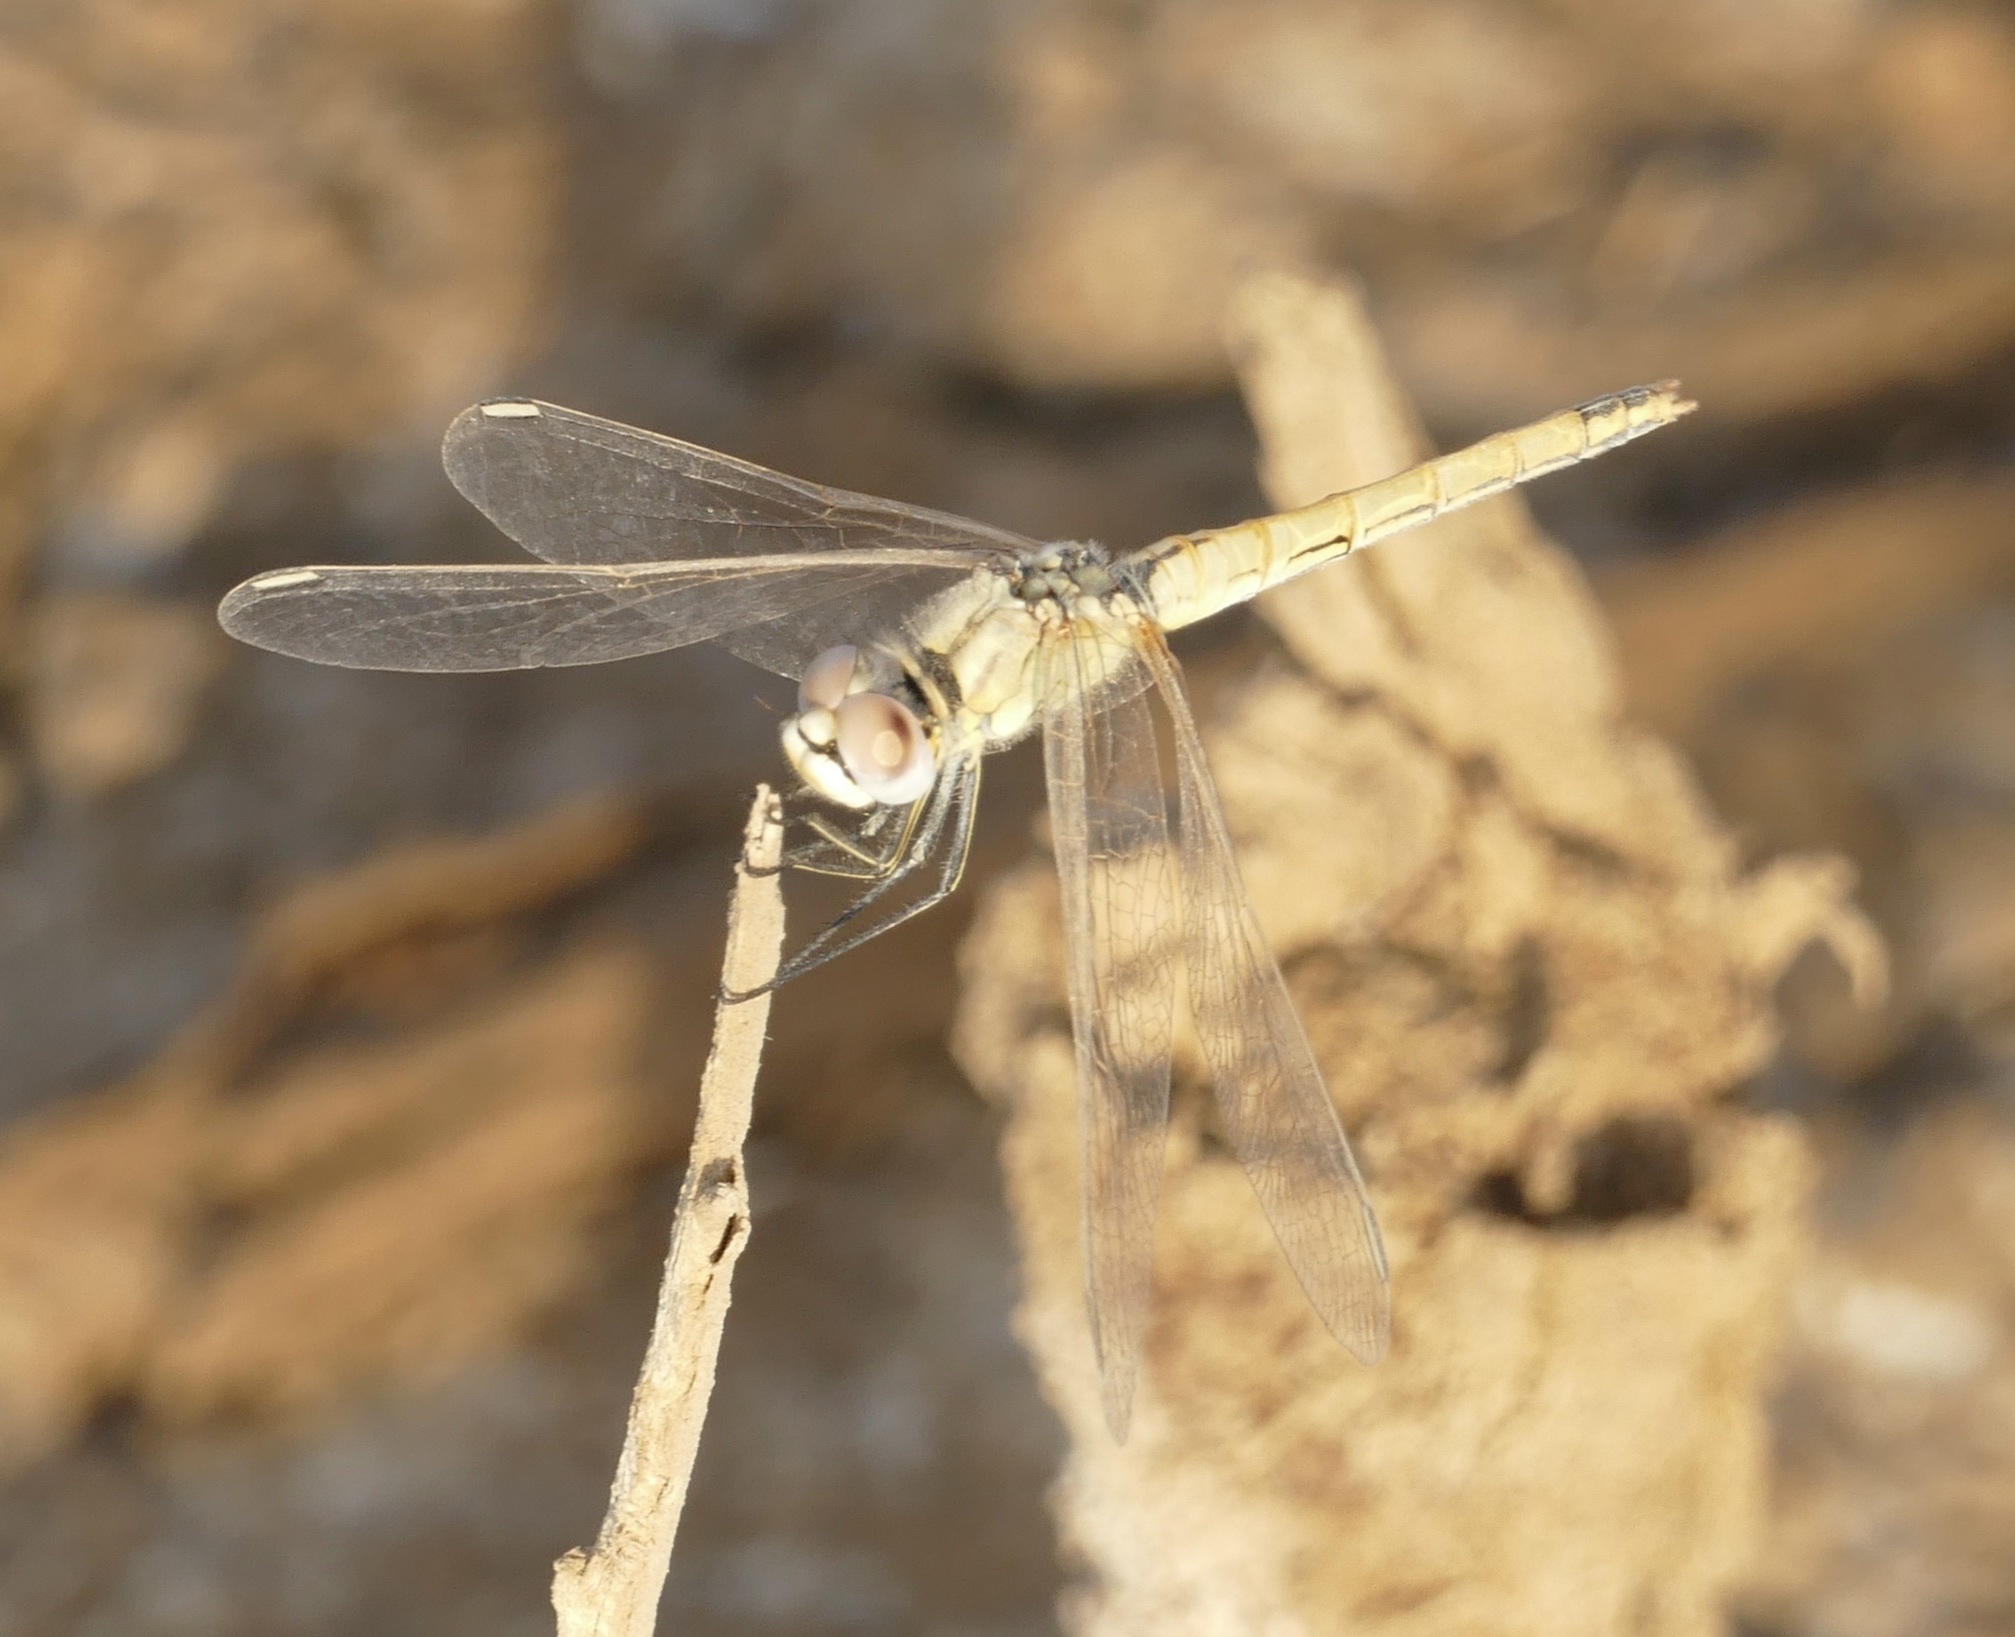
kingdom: Animalia
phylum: Arthropoda
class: Insecta
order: Odonata
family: Libellulidae
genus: Sympetrum
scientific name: Sympetrum fonscolombii
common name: Red-veined darter
